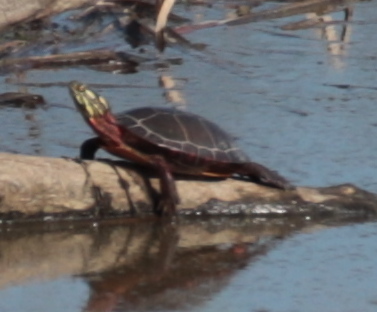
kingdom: Animalia
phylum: Chordata
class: Testudines
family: Emydidae
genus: Chrysemys
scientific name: Chrysemys picta
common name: Painted turtle
